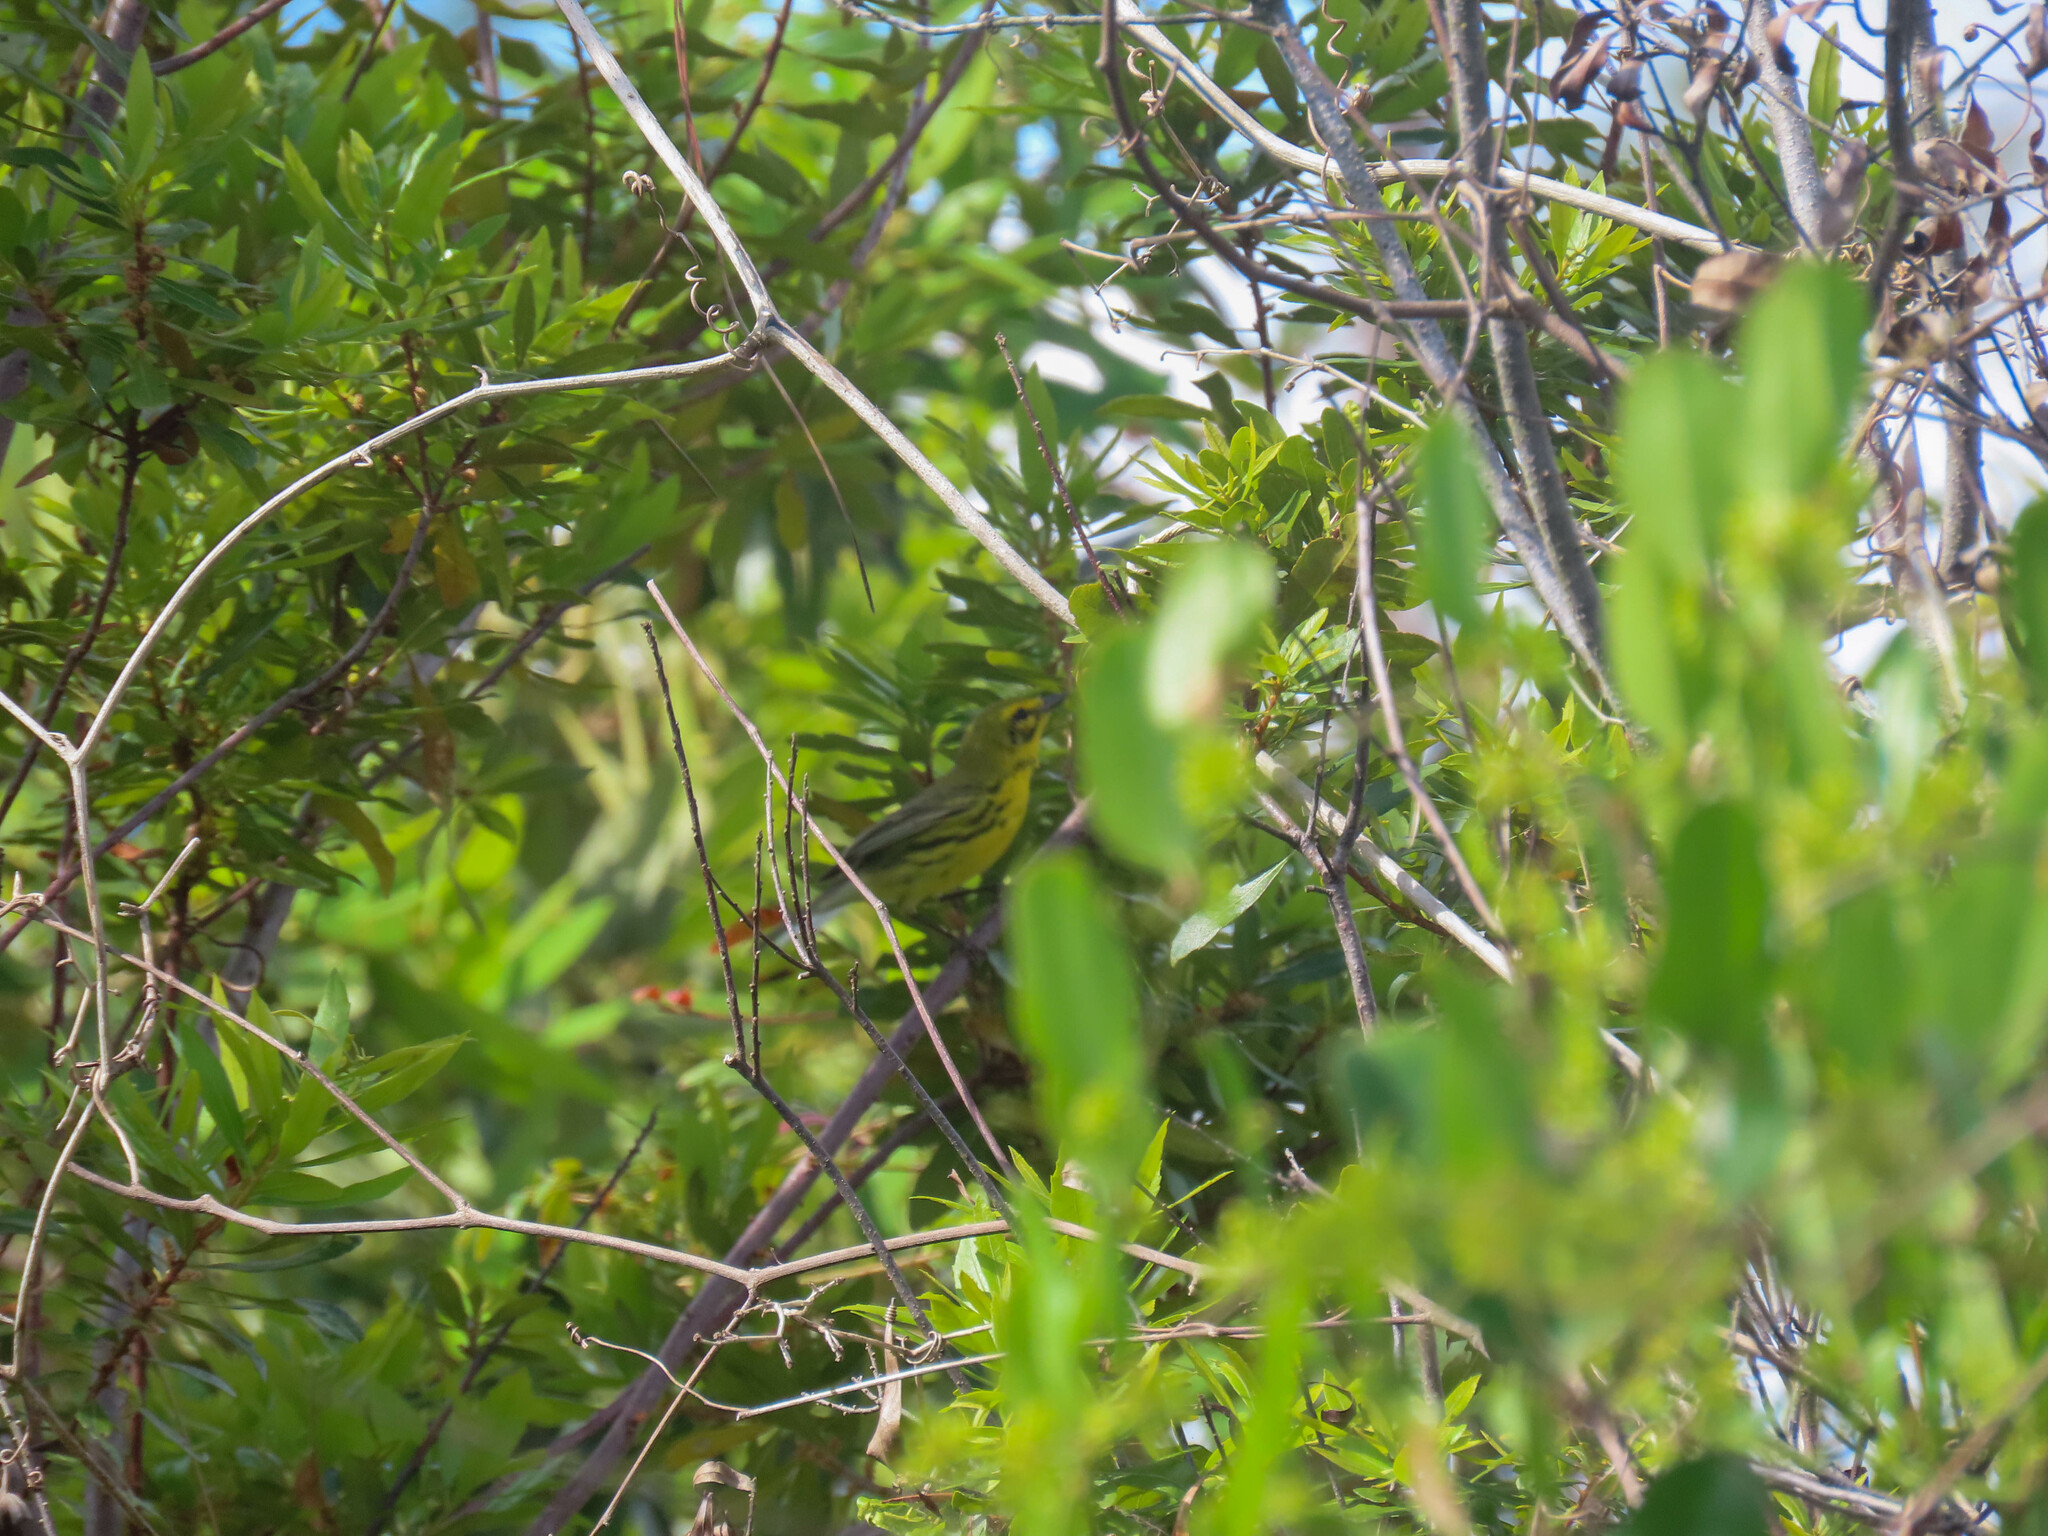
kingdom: Animalia
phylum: Chordata
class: Aves
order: Passeriformes
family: Parulidae
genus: Setophaga
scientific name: Setophaga discolor
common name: Prairie warbler
